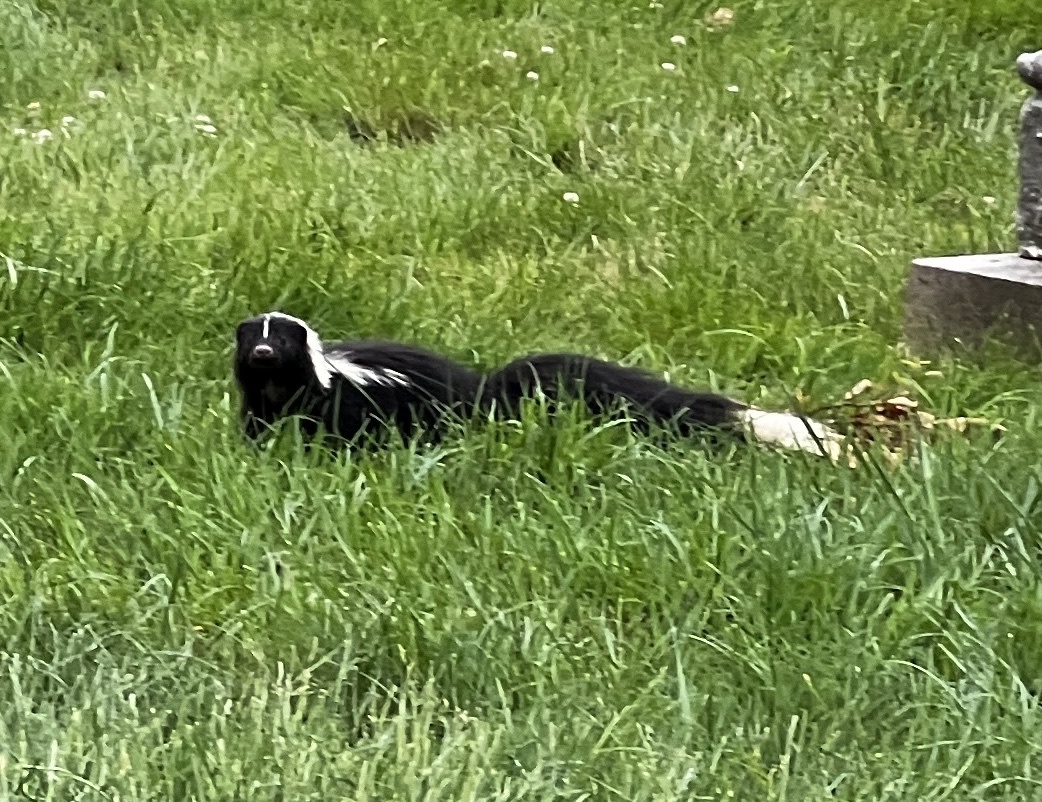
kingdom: Animalia
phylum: Chordata
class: Mammalia
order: Carnivora
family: Mephitidae
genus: Mephitis
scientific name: Mephitis mephitis
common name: Striped skunk
